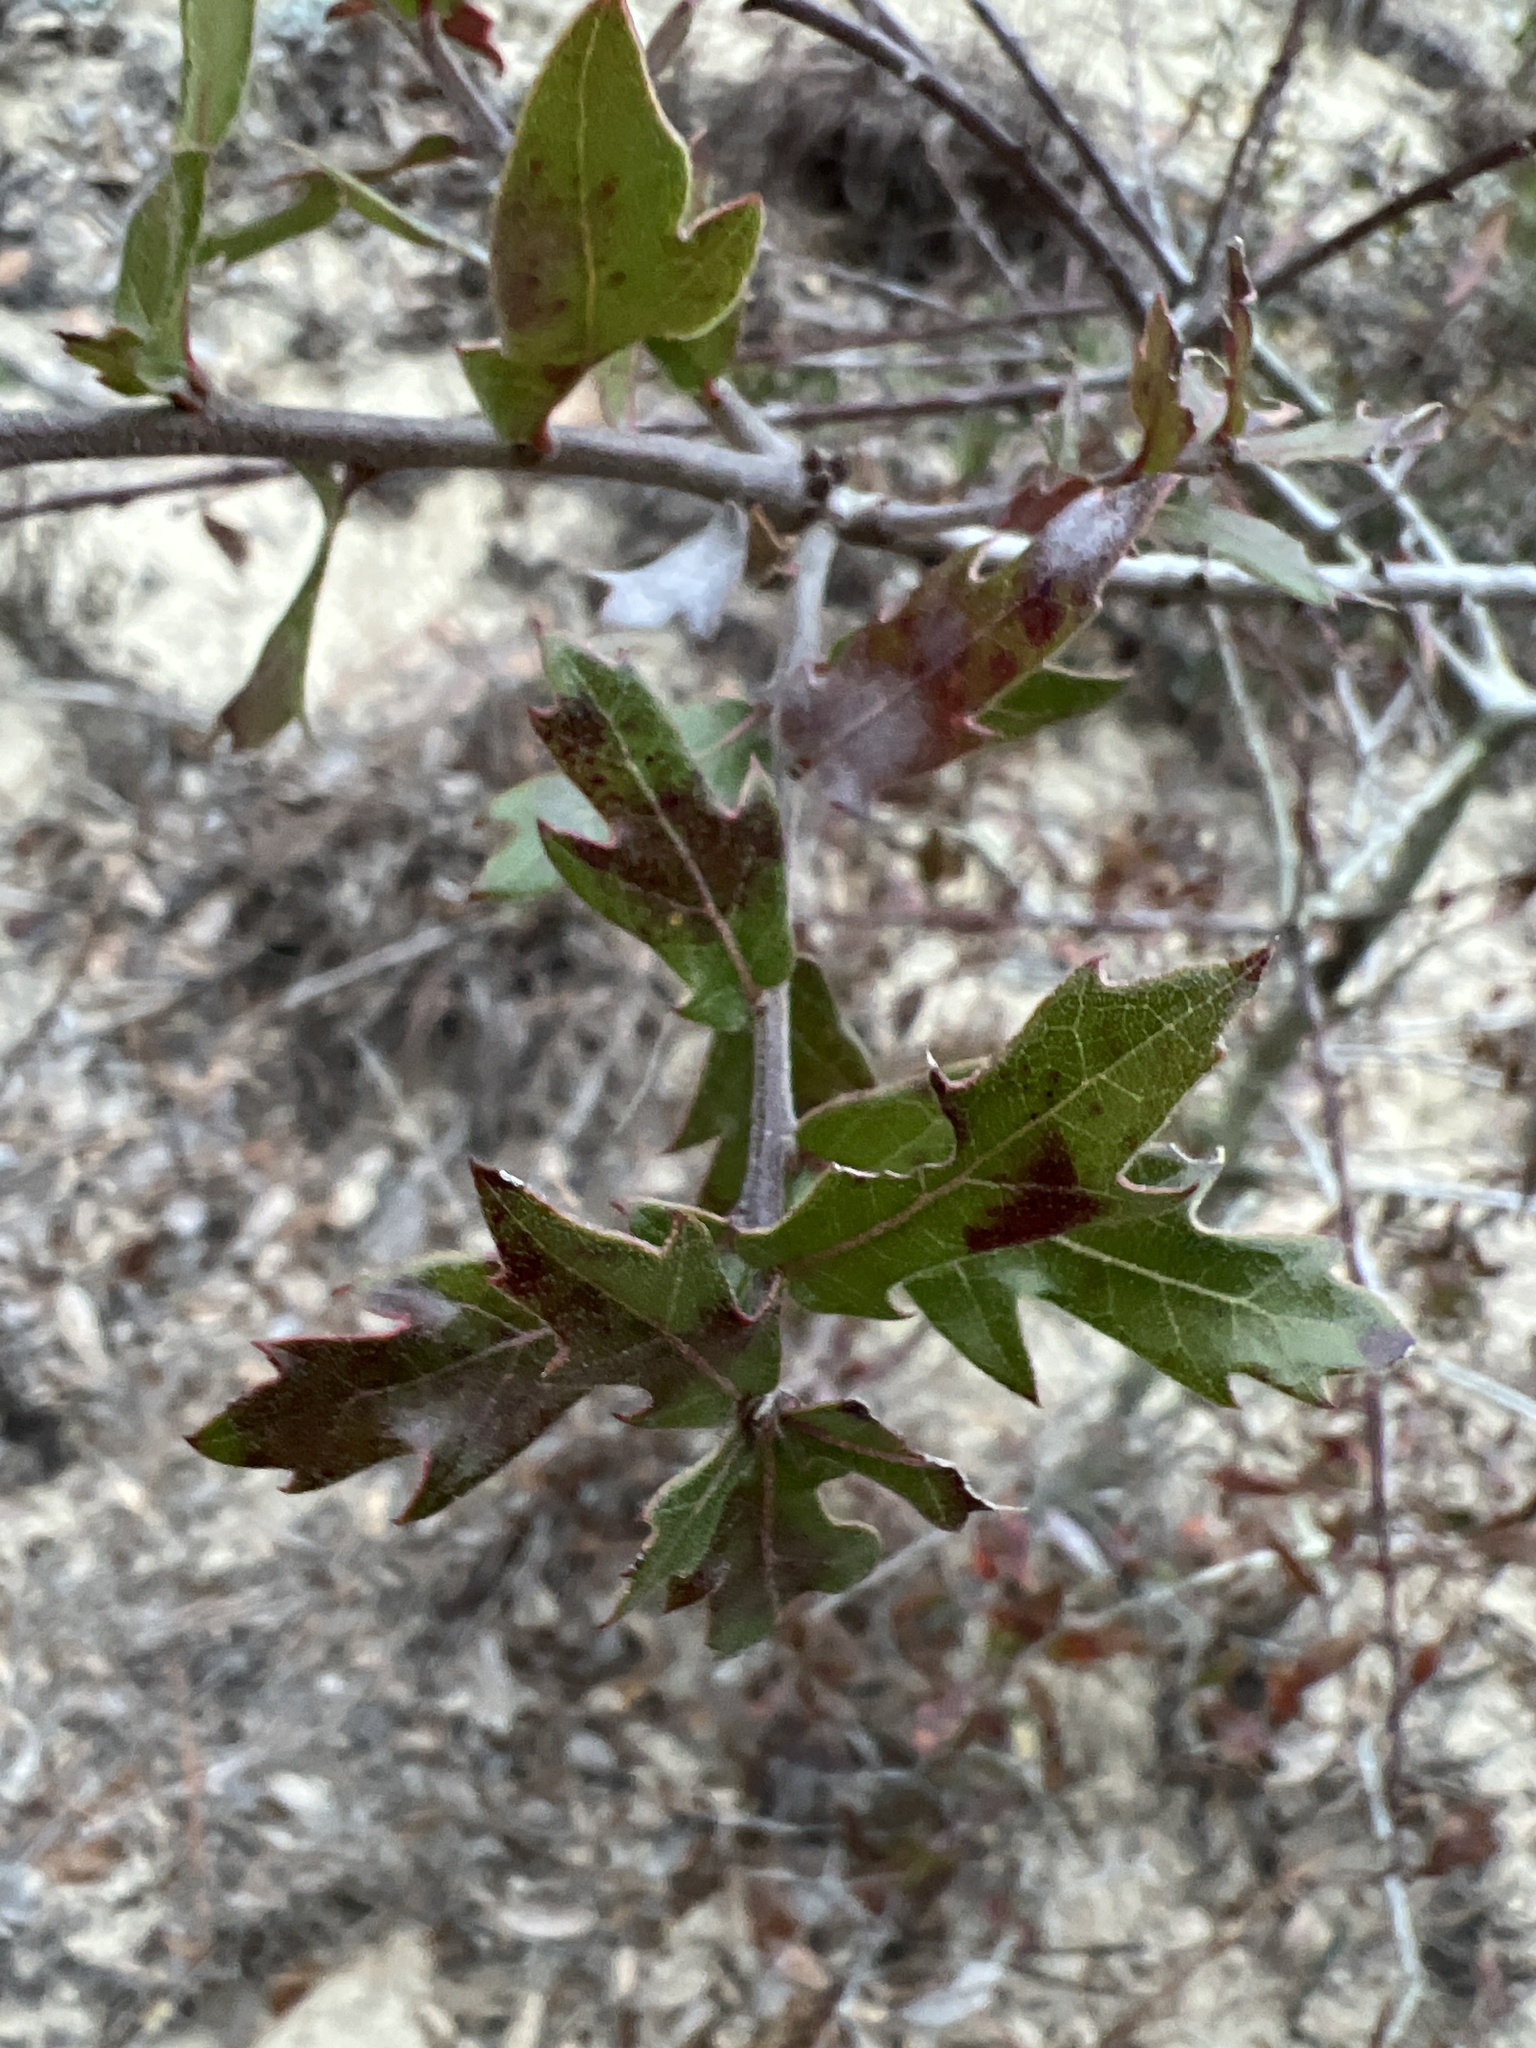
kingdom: Plantae
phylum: Tracheophyta
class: Magnoliopsida
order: Fagales
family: Fagaceae
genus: Quercus
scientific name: Quercus hemisphaerica
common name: Darlington oak
